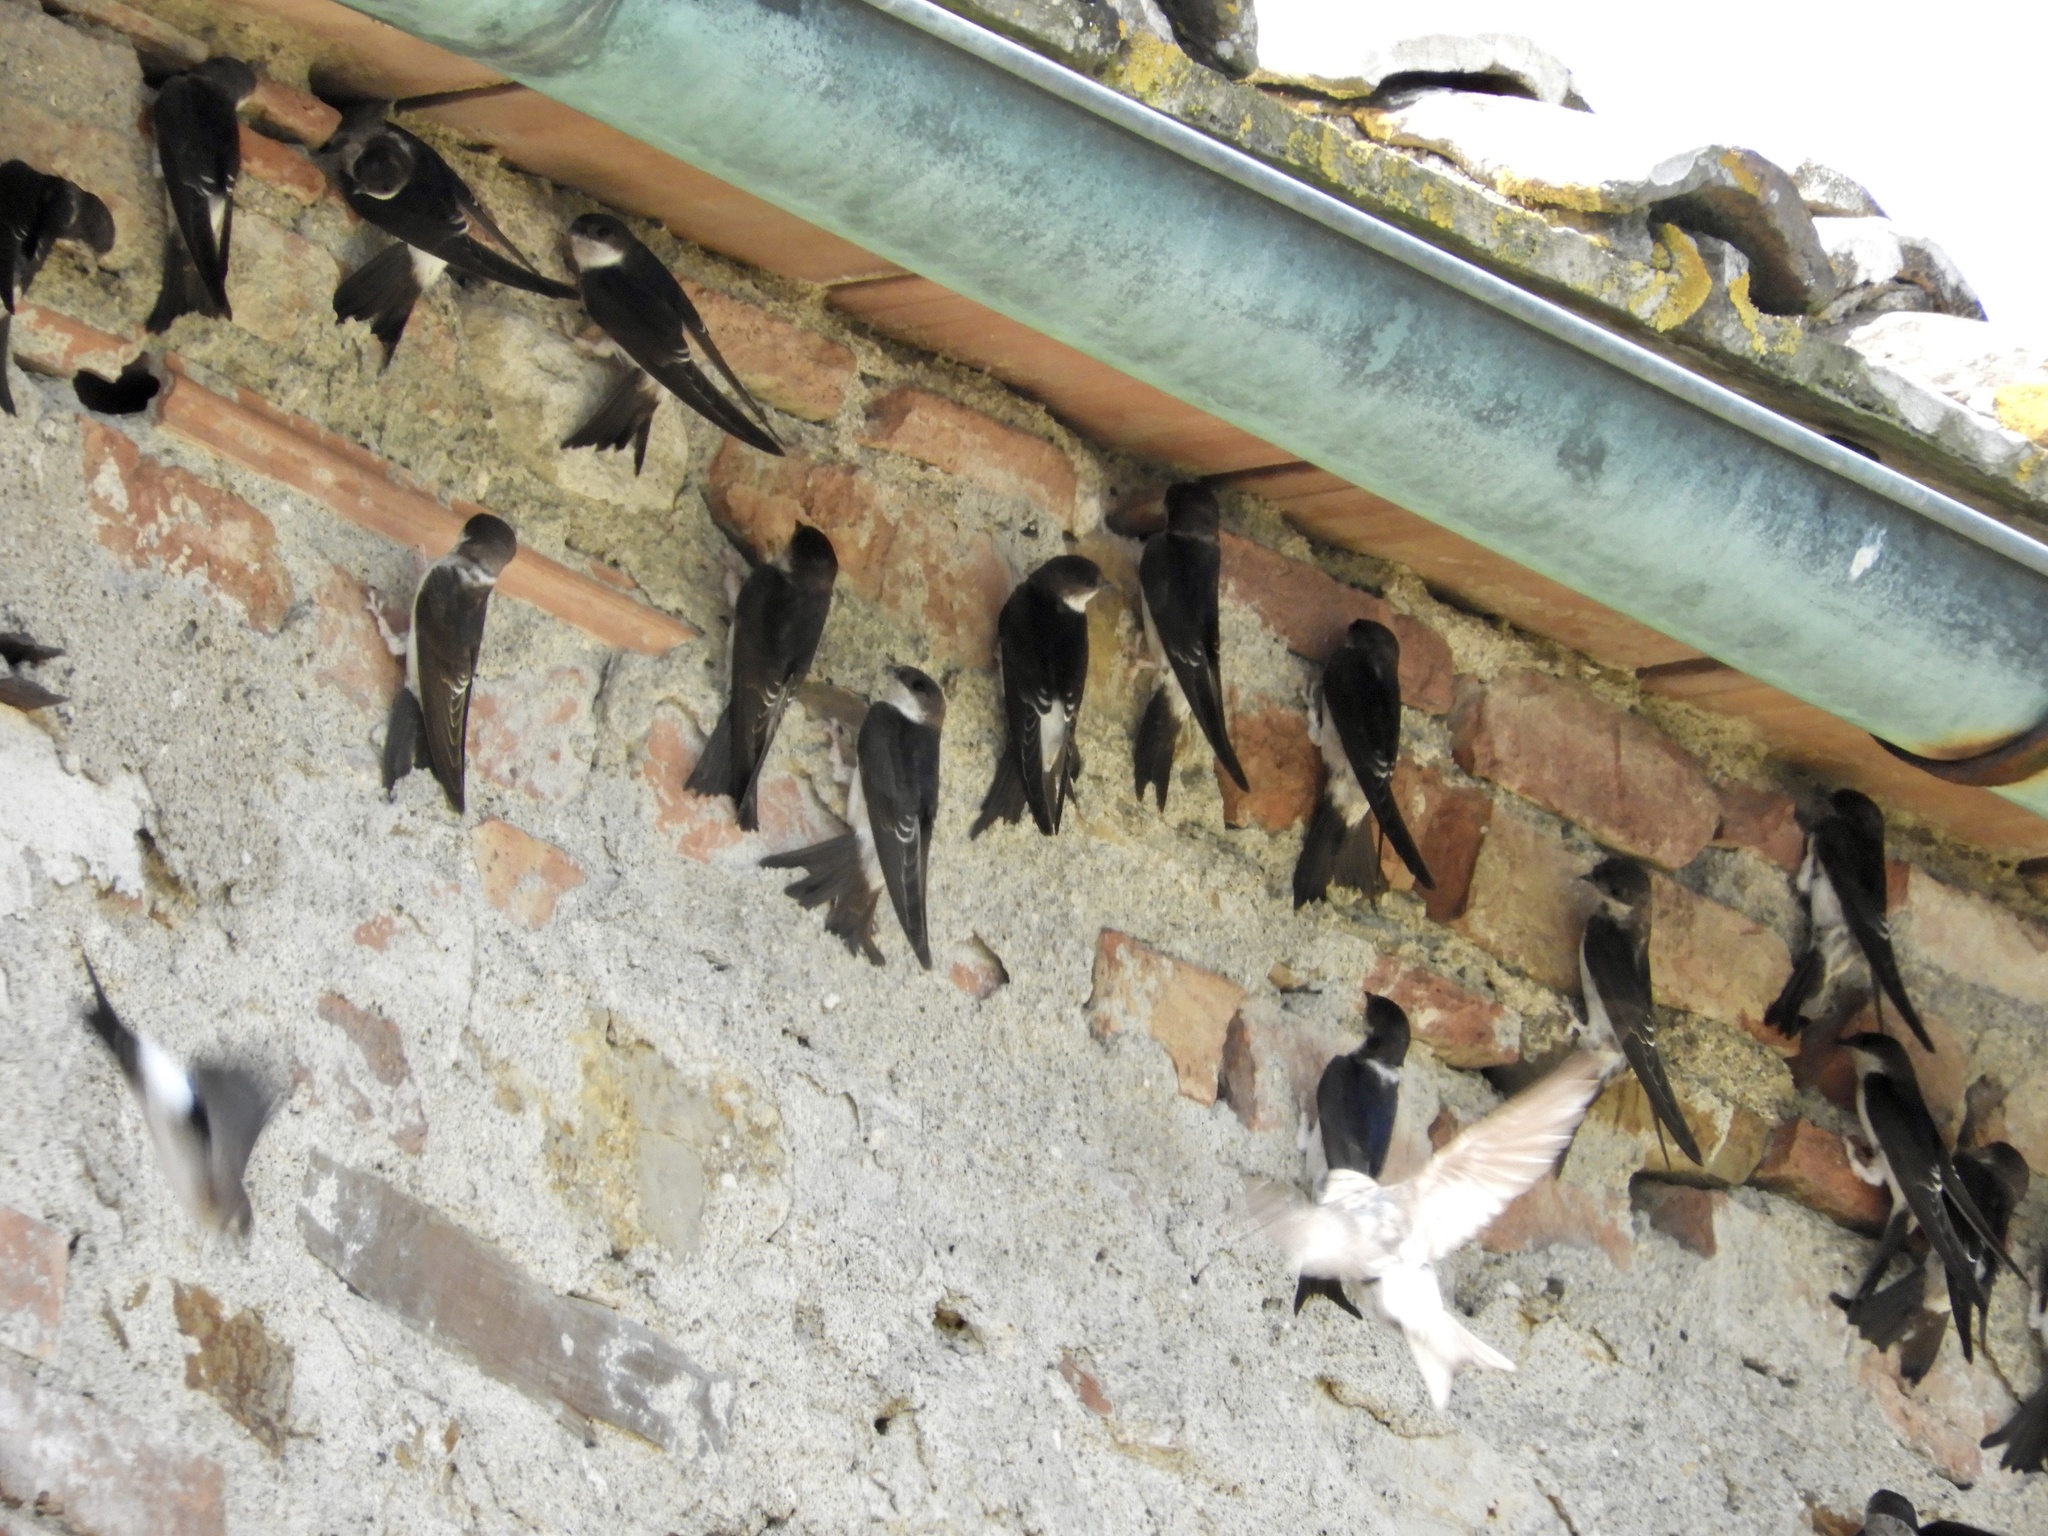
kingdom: Animalia
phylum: Chordata
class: Aves
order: Passeriformes
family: Hirundinidae
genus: Delichon
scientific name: Delichon urbicum
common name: Common house martin
